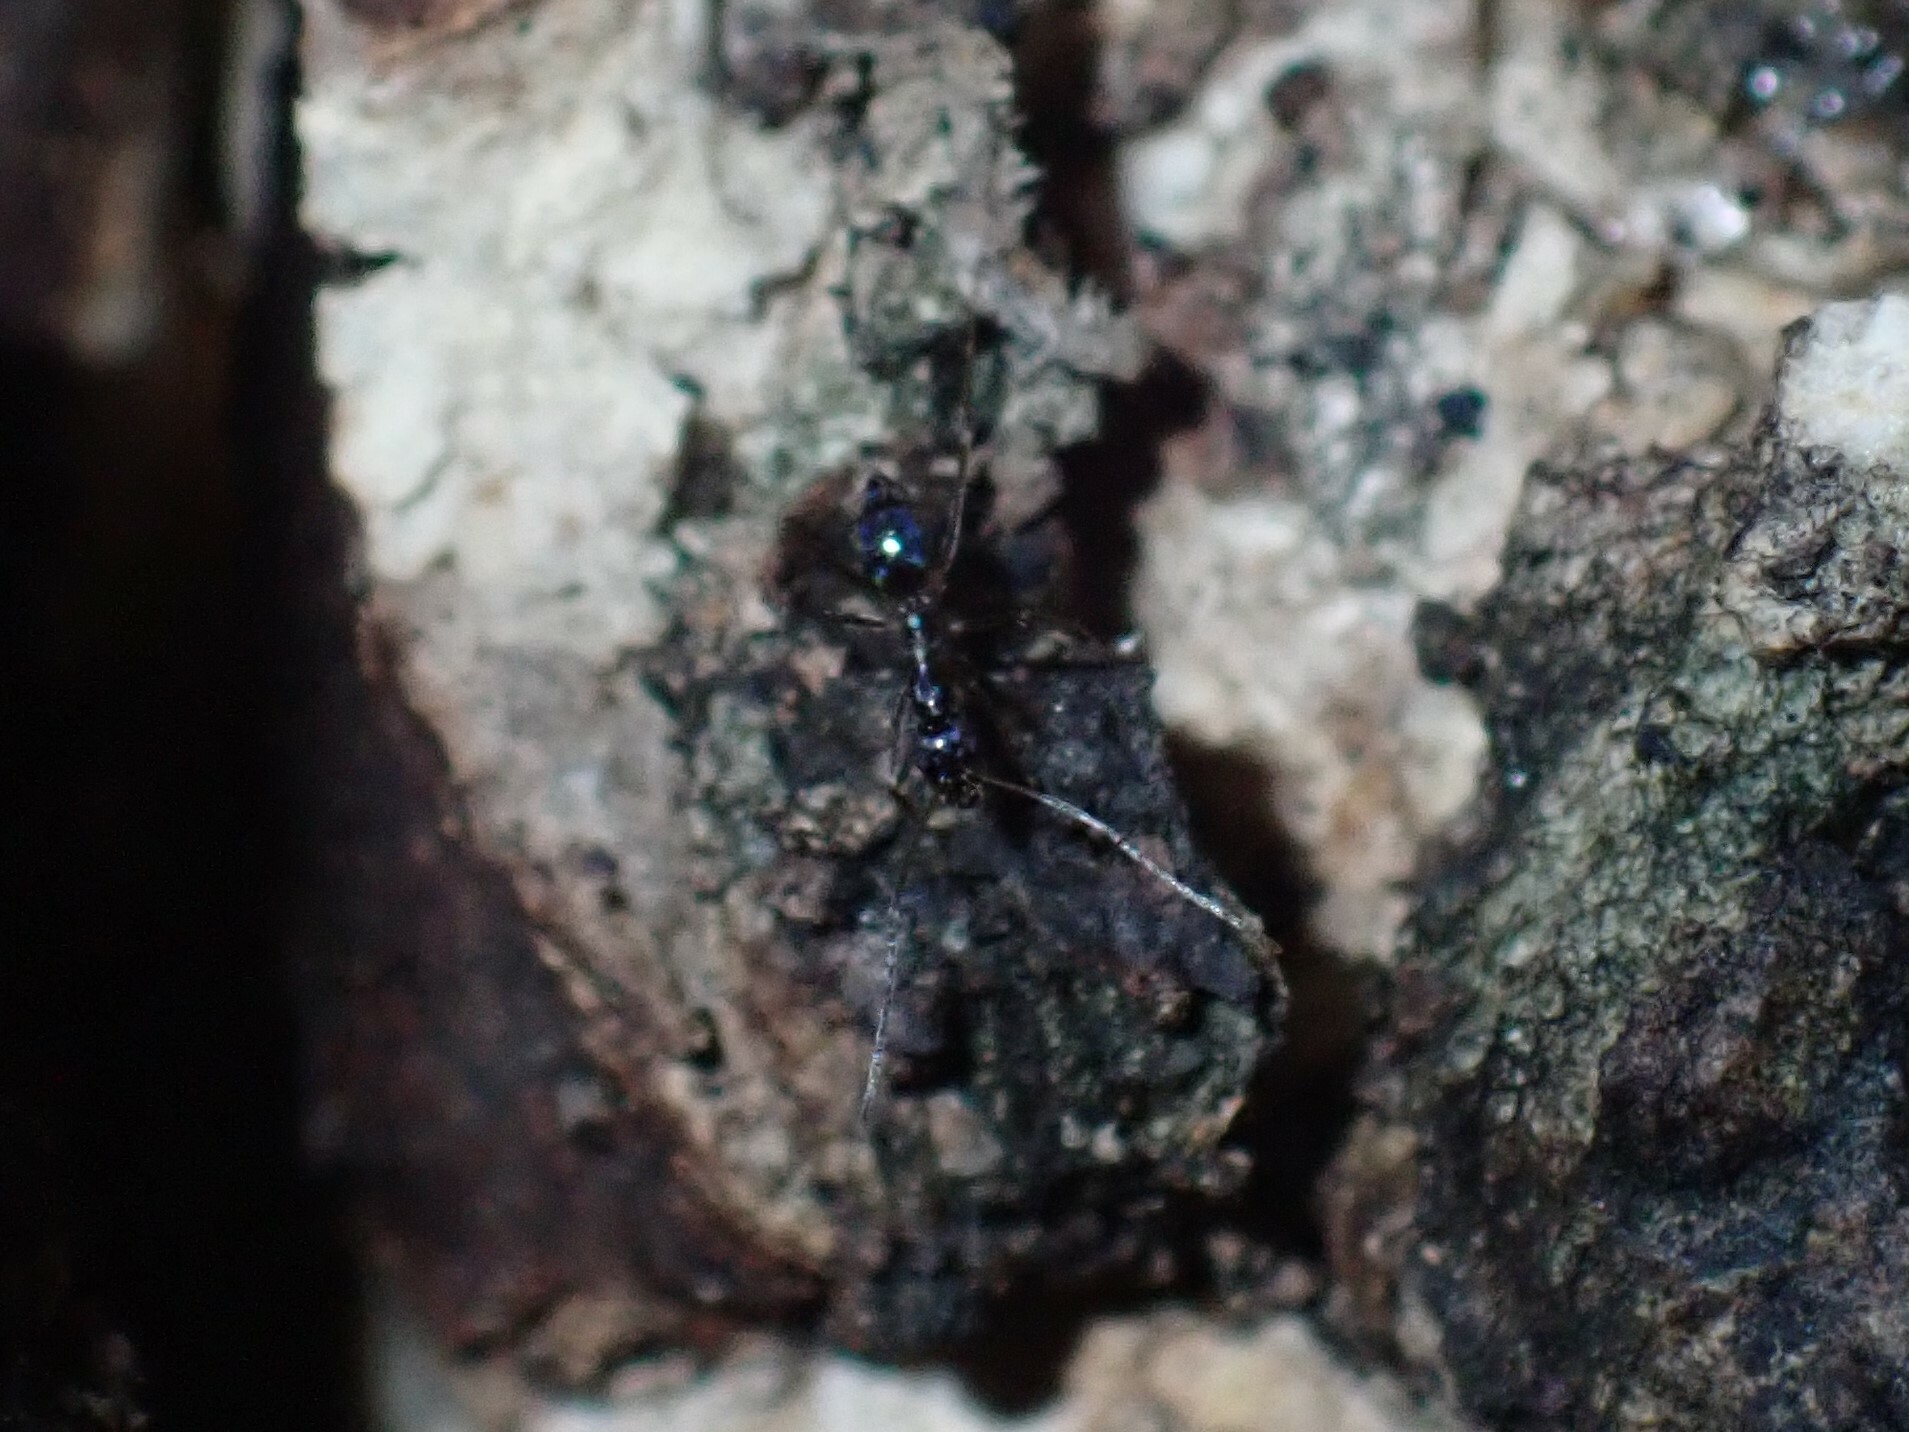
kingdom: Animalia
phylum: Arthropoda
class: Insecta
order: Hymenoptera
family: Formicidae
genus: Paratrechina
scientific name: Paratrechina longicornis
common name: Longhorned crazy ant
